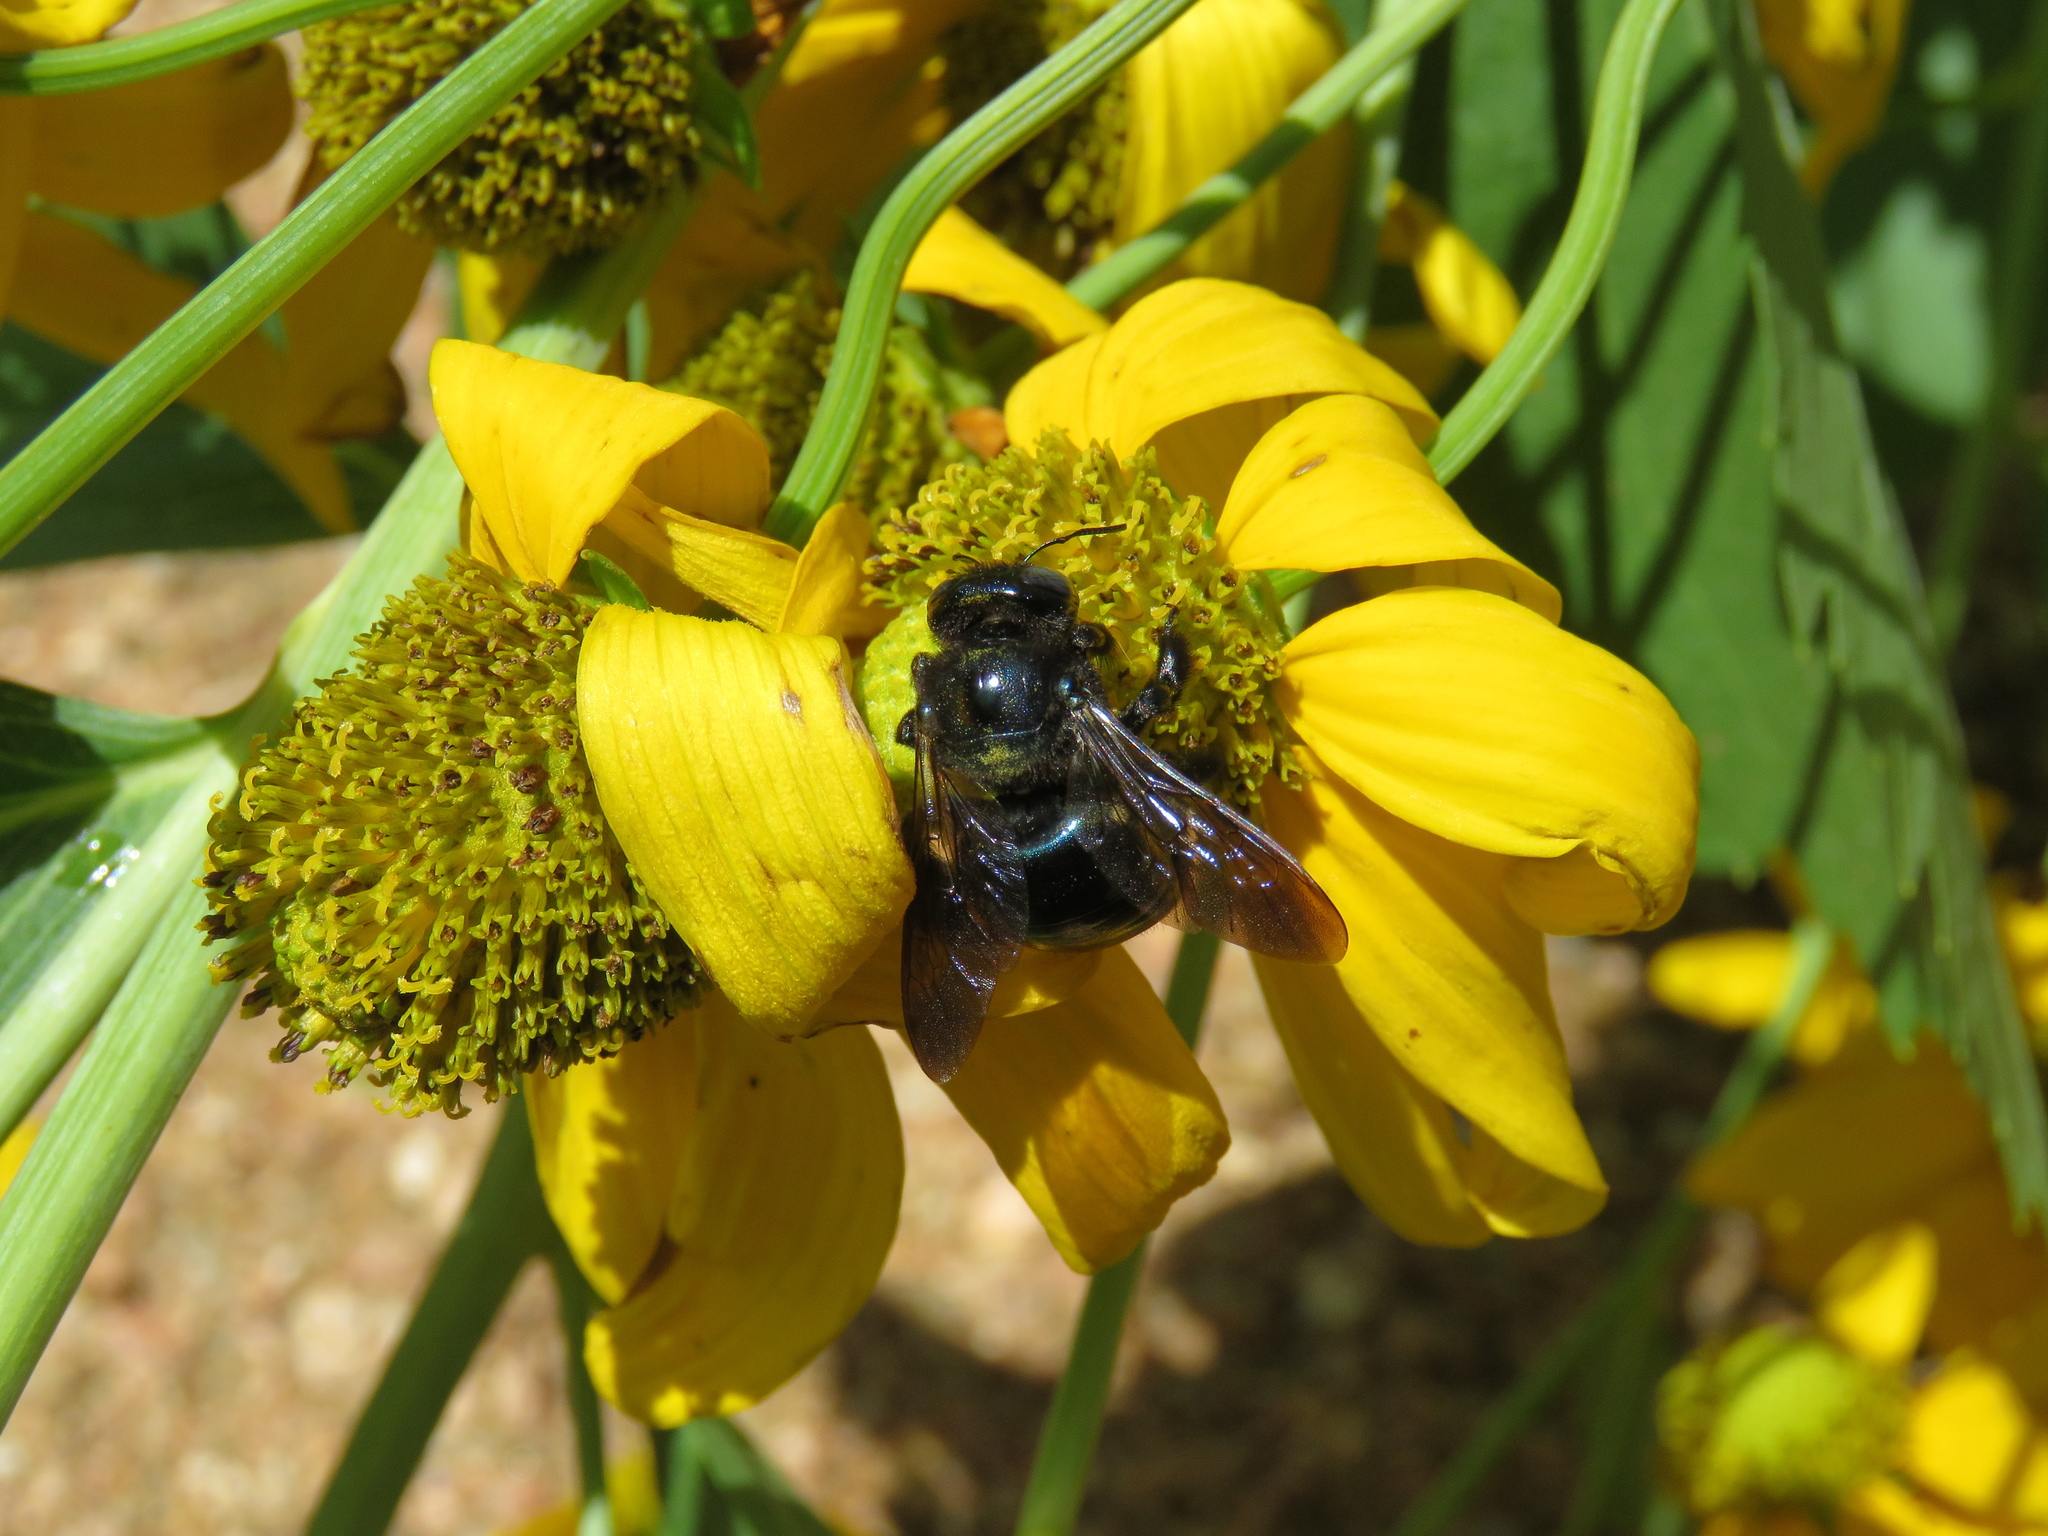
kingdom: Animalia
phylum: Arthropoda
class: Insecta
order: Hymenoptera
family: Apidae
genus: Xylocopa
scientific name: Xylocopa micans
